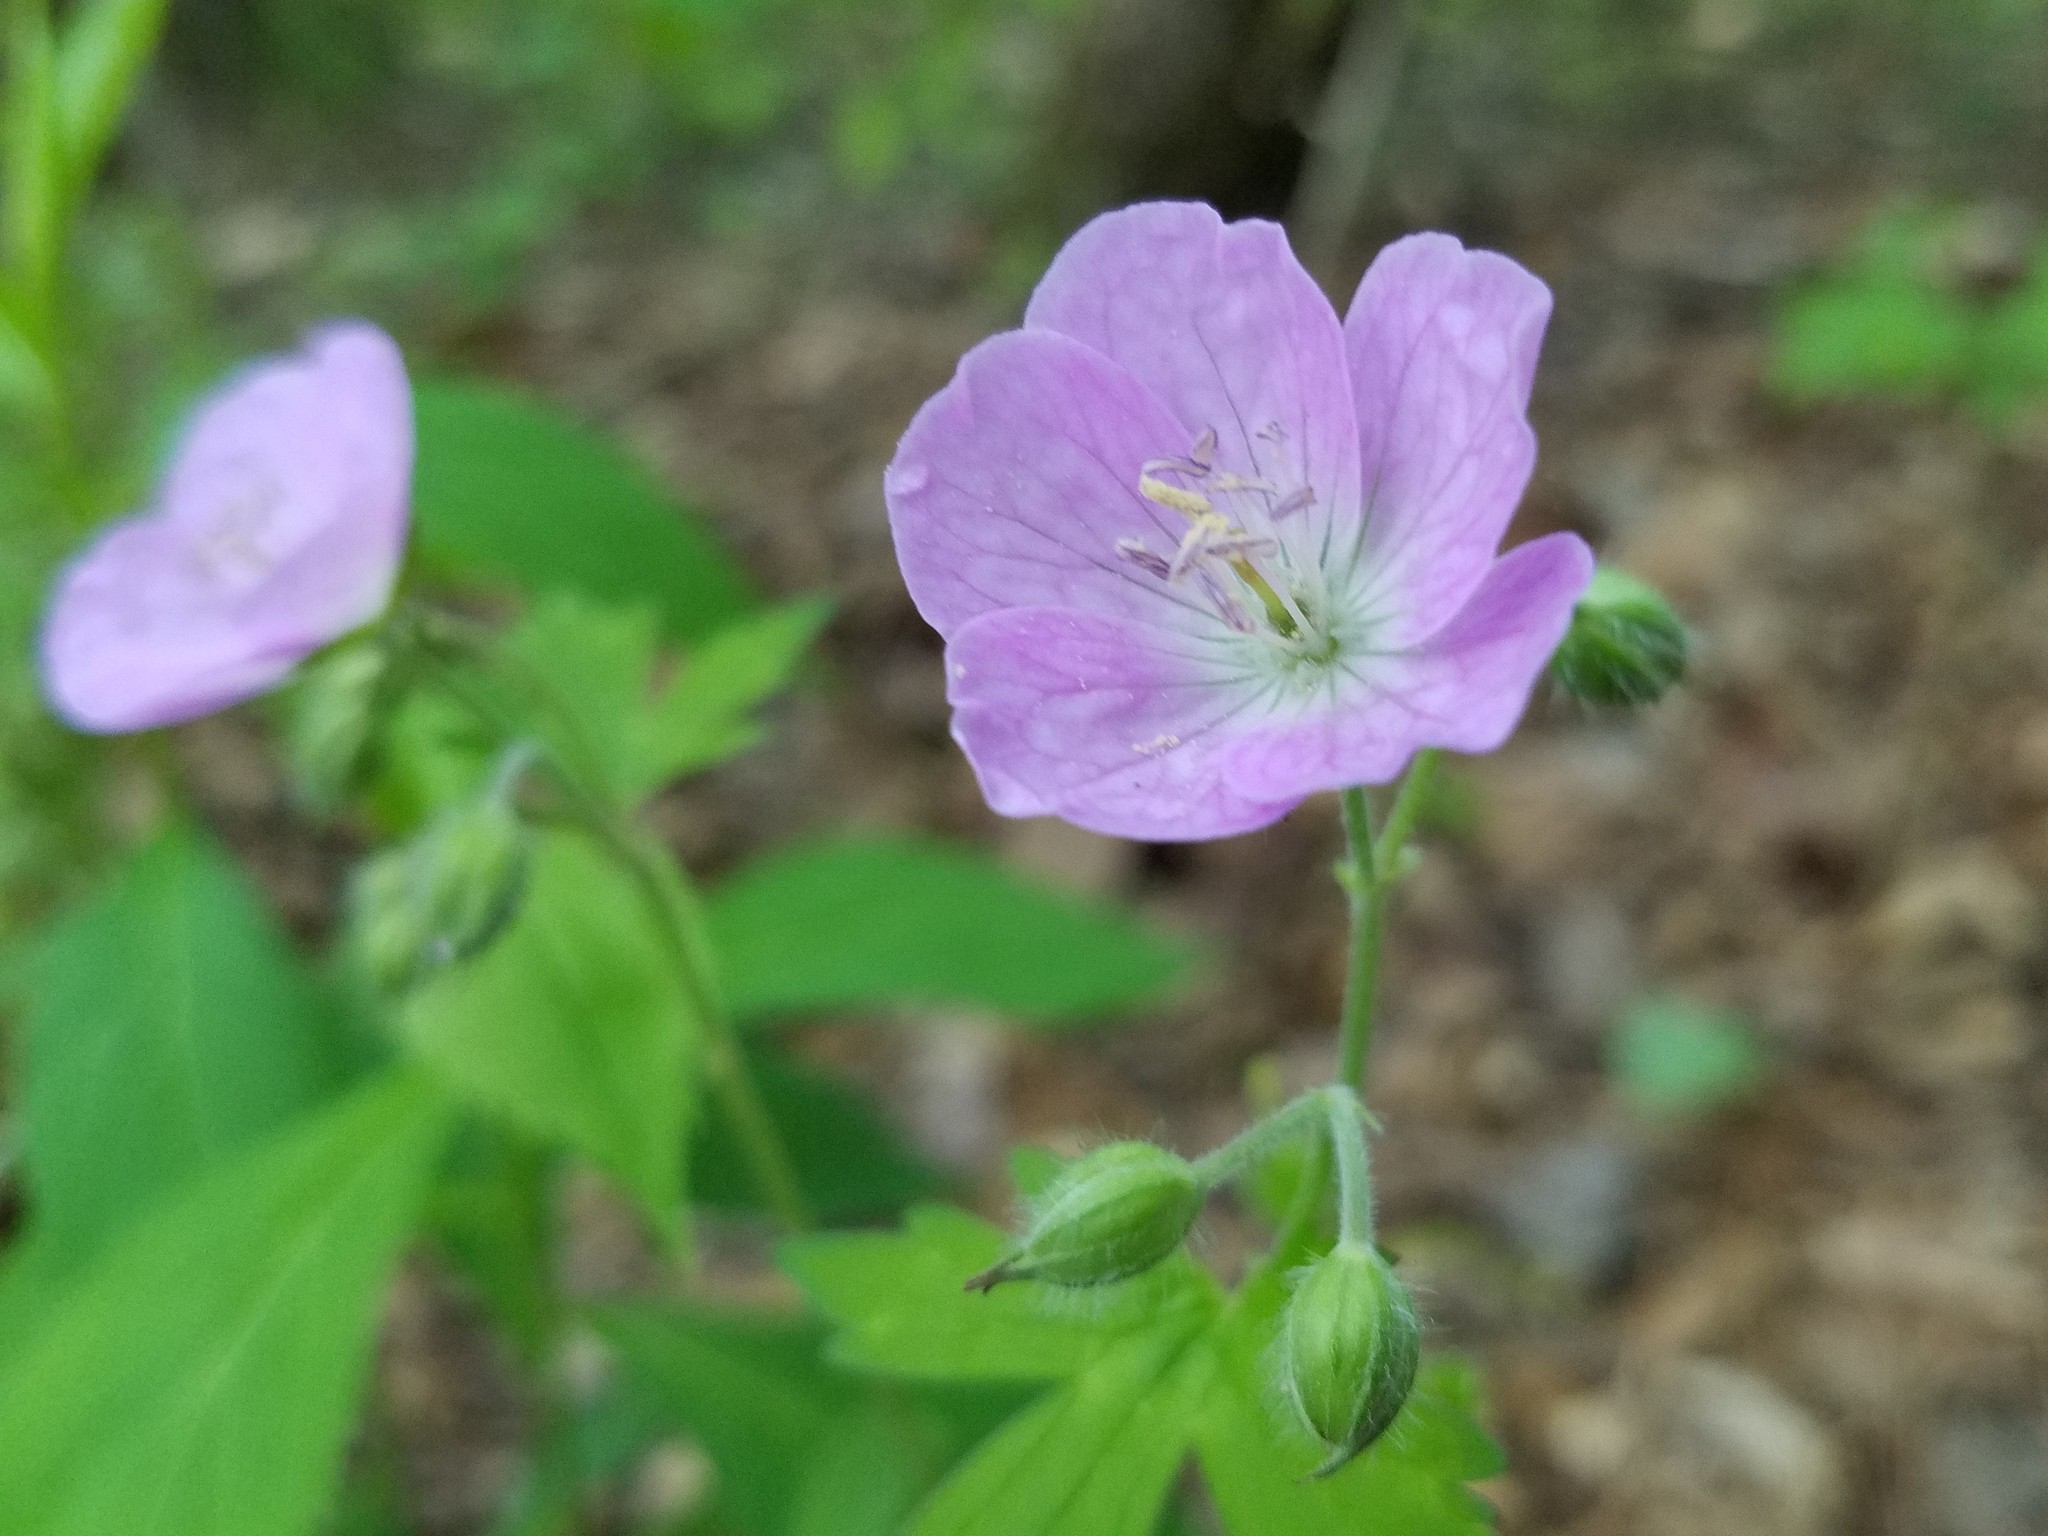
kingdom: Plantae
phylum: Tracheophyta
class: Magnoliopsida
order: Geraniales
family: Geraniaceae
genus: Geranium
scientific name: Geranium maculatum
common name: Spotted geranium
